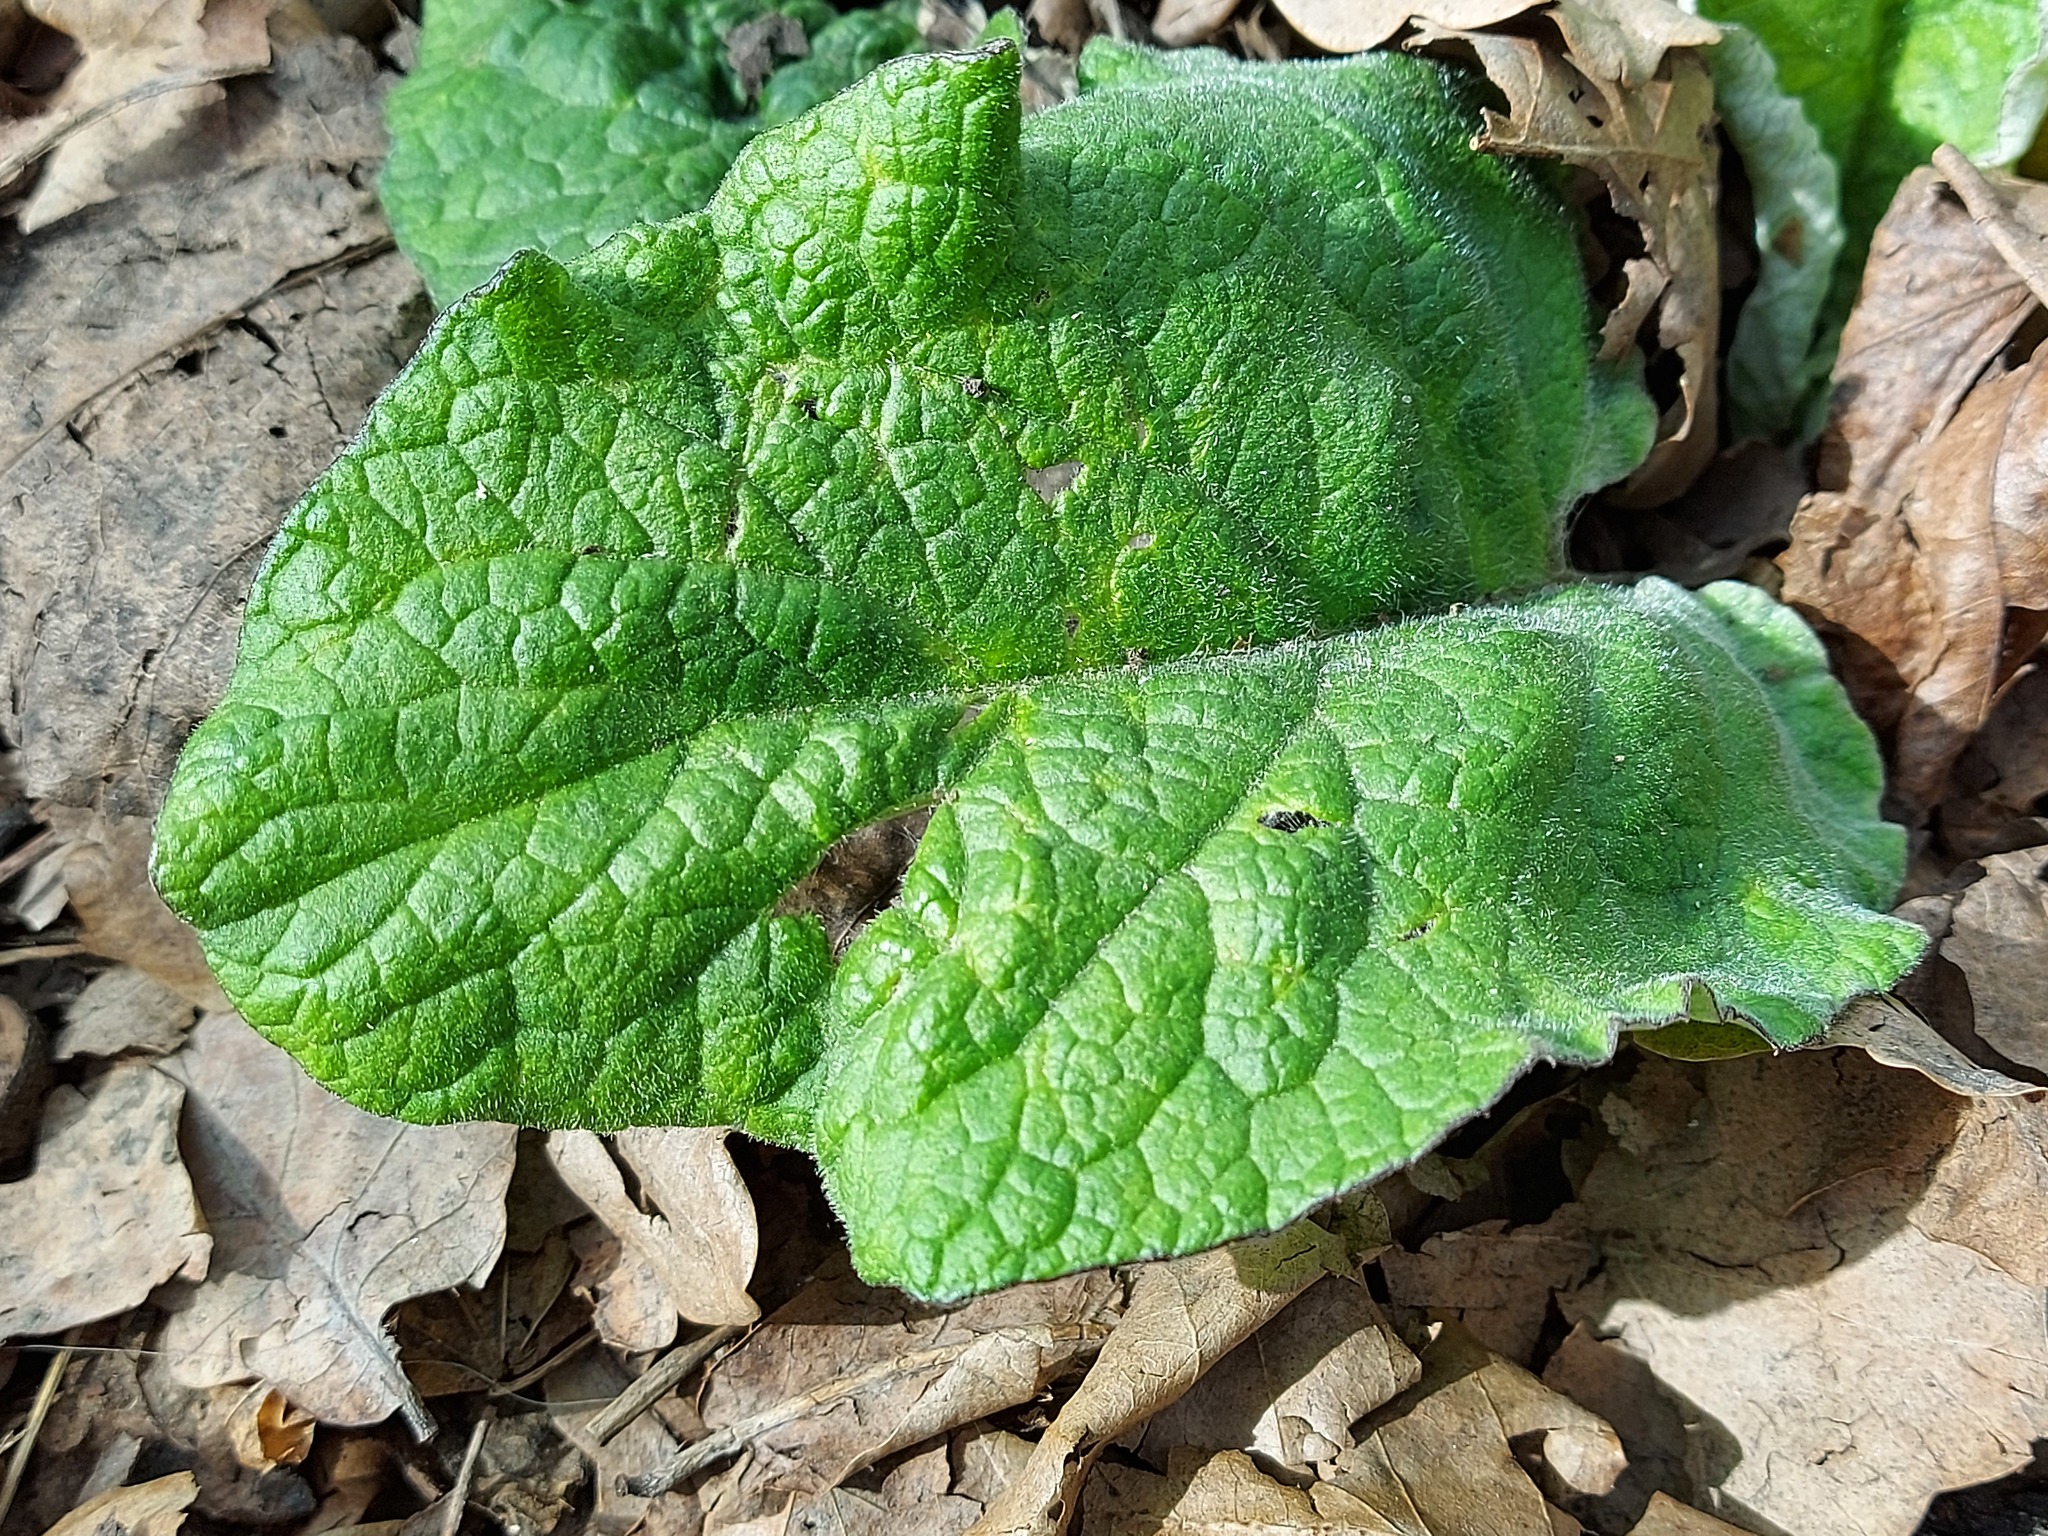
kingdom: Plantae
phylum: Tracheophyta
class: Magnoliopsida
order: Asterales
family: Asteraceae
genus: Arctium
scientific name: Arctium
